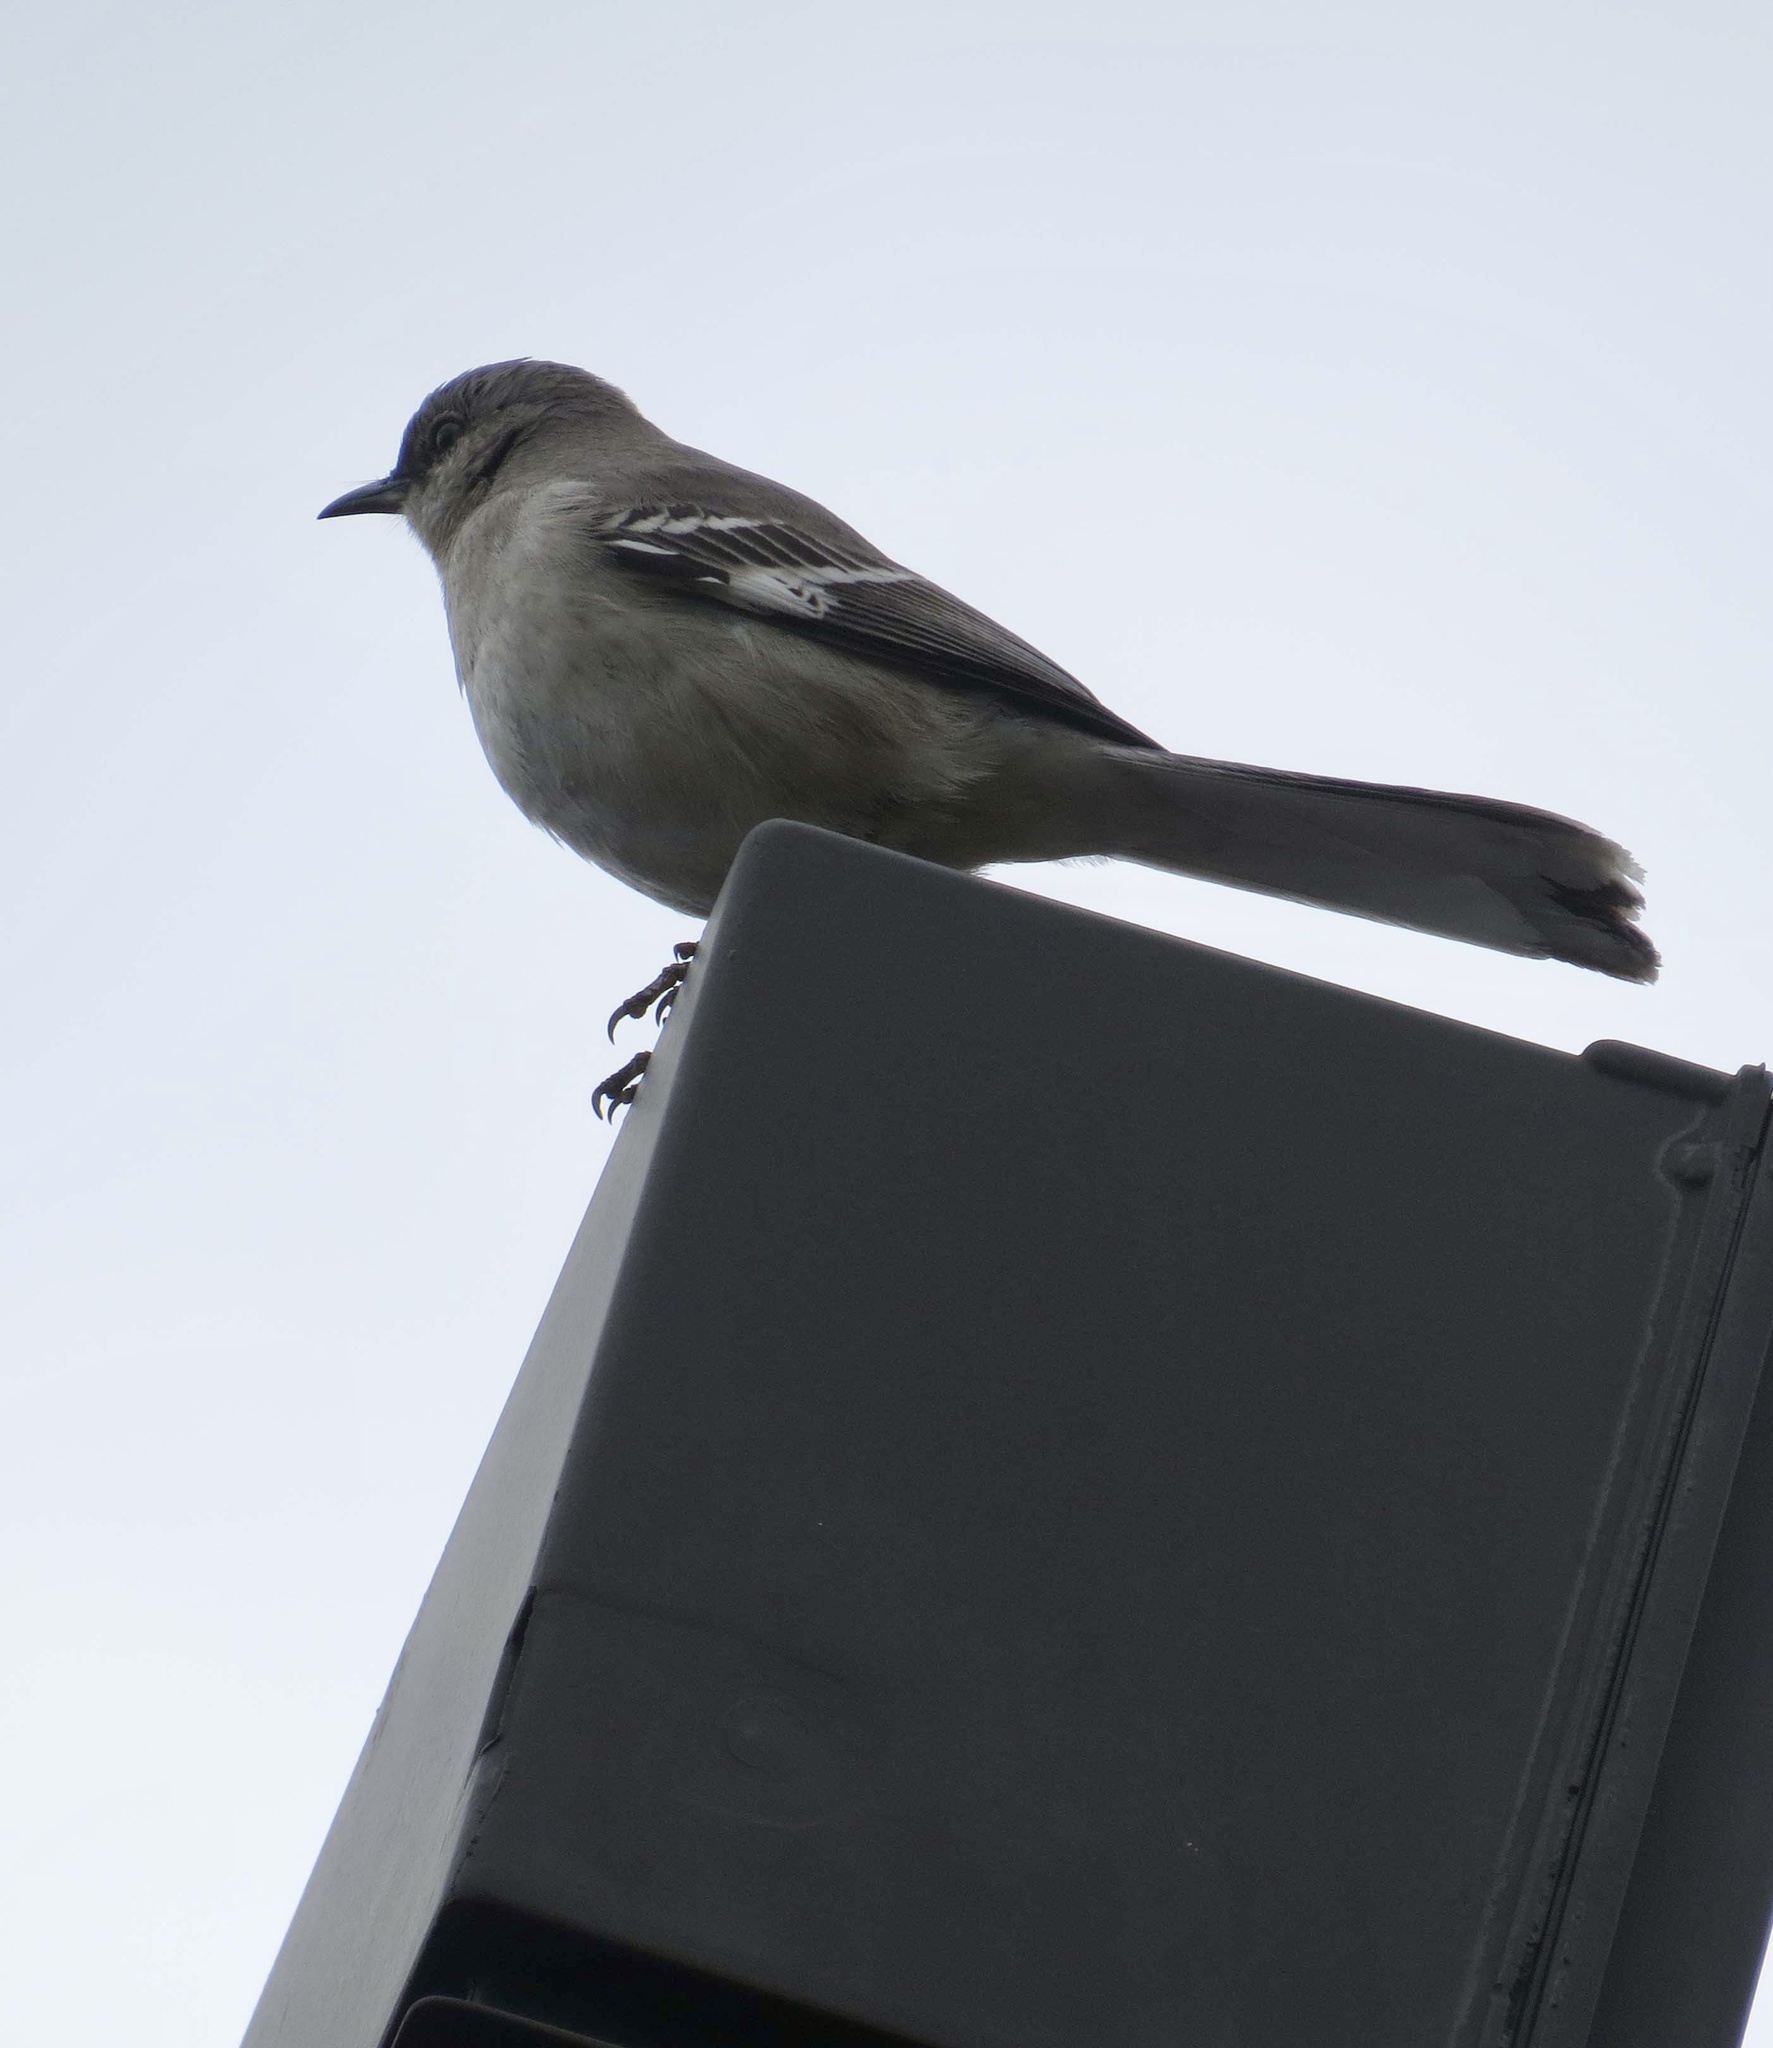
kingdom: Animalia
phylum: Chordata
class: Aves
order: Passeriformes
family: Mimidae
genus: Mimus
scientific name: Mimus polyglottos
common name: Northern mockingbird
